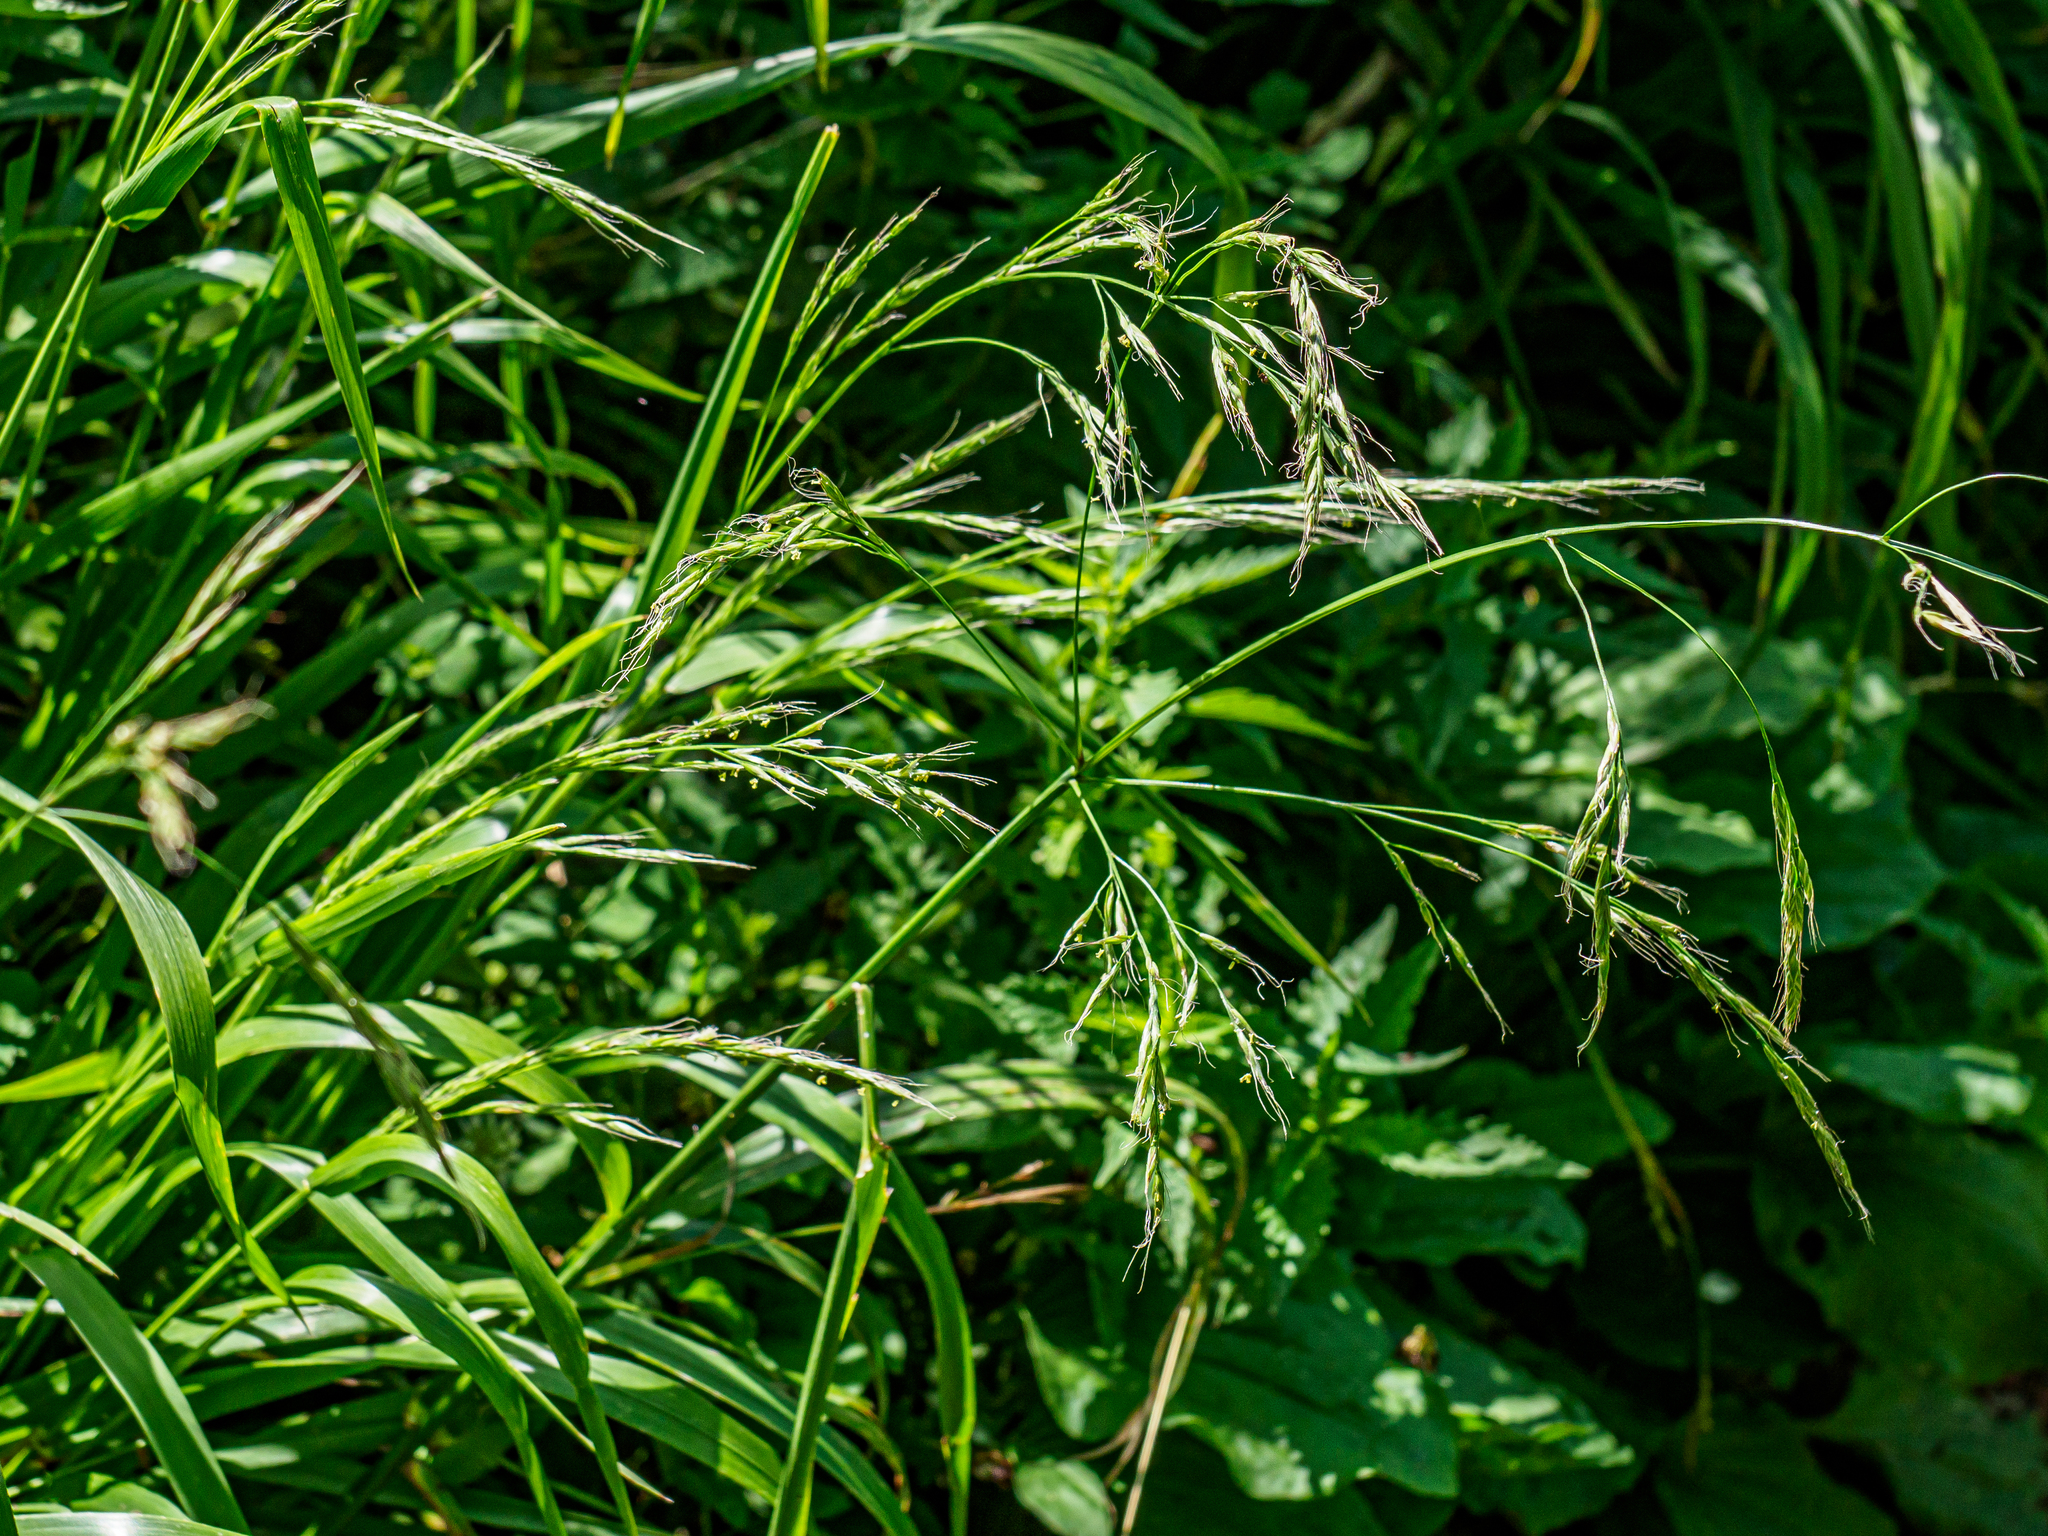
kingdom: Plantae
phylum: Tracheophyta
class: Liliopsida
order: Poales
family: Poaceae
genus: Lolium
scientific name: Lolium giganteum
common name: Giant fescue
